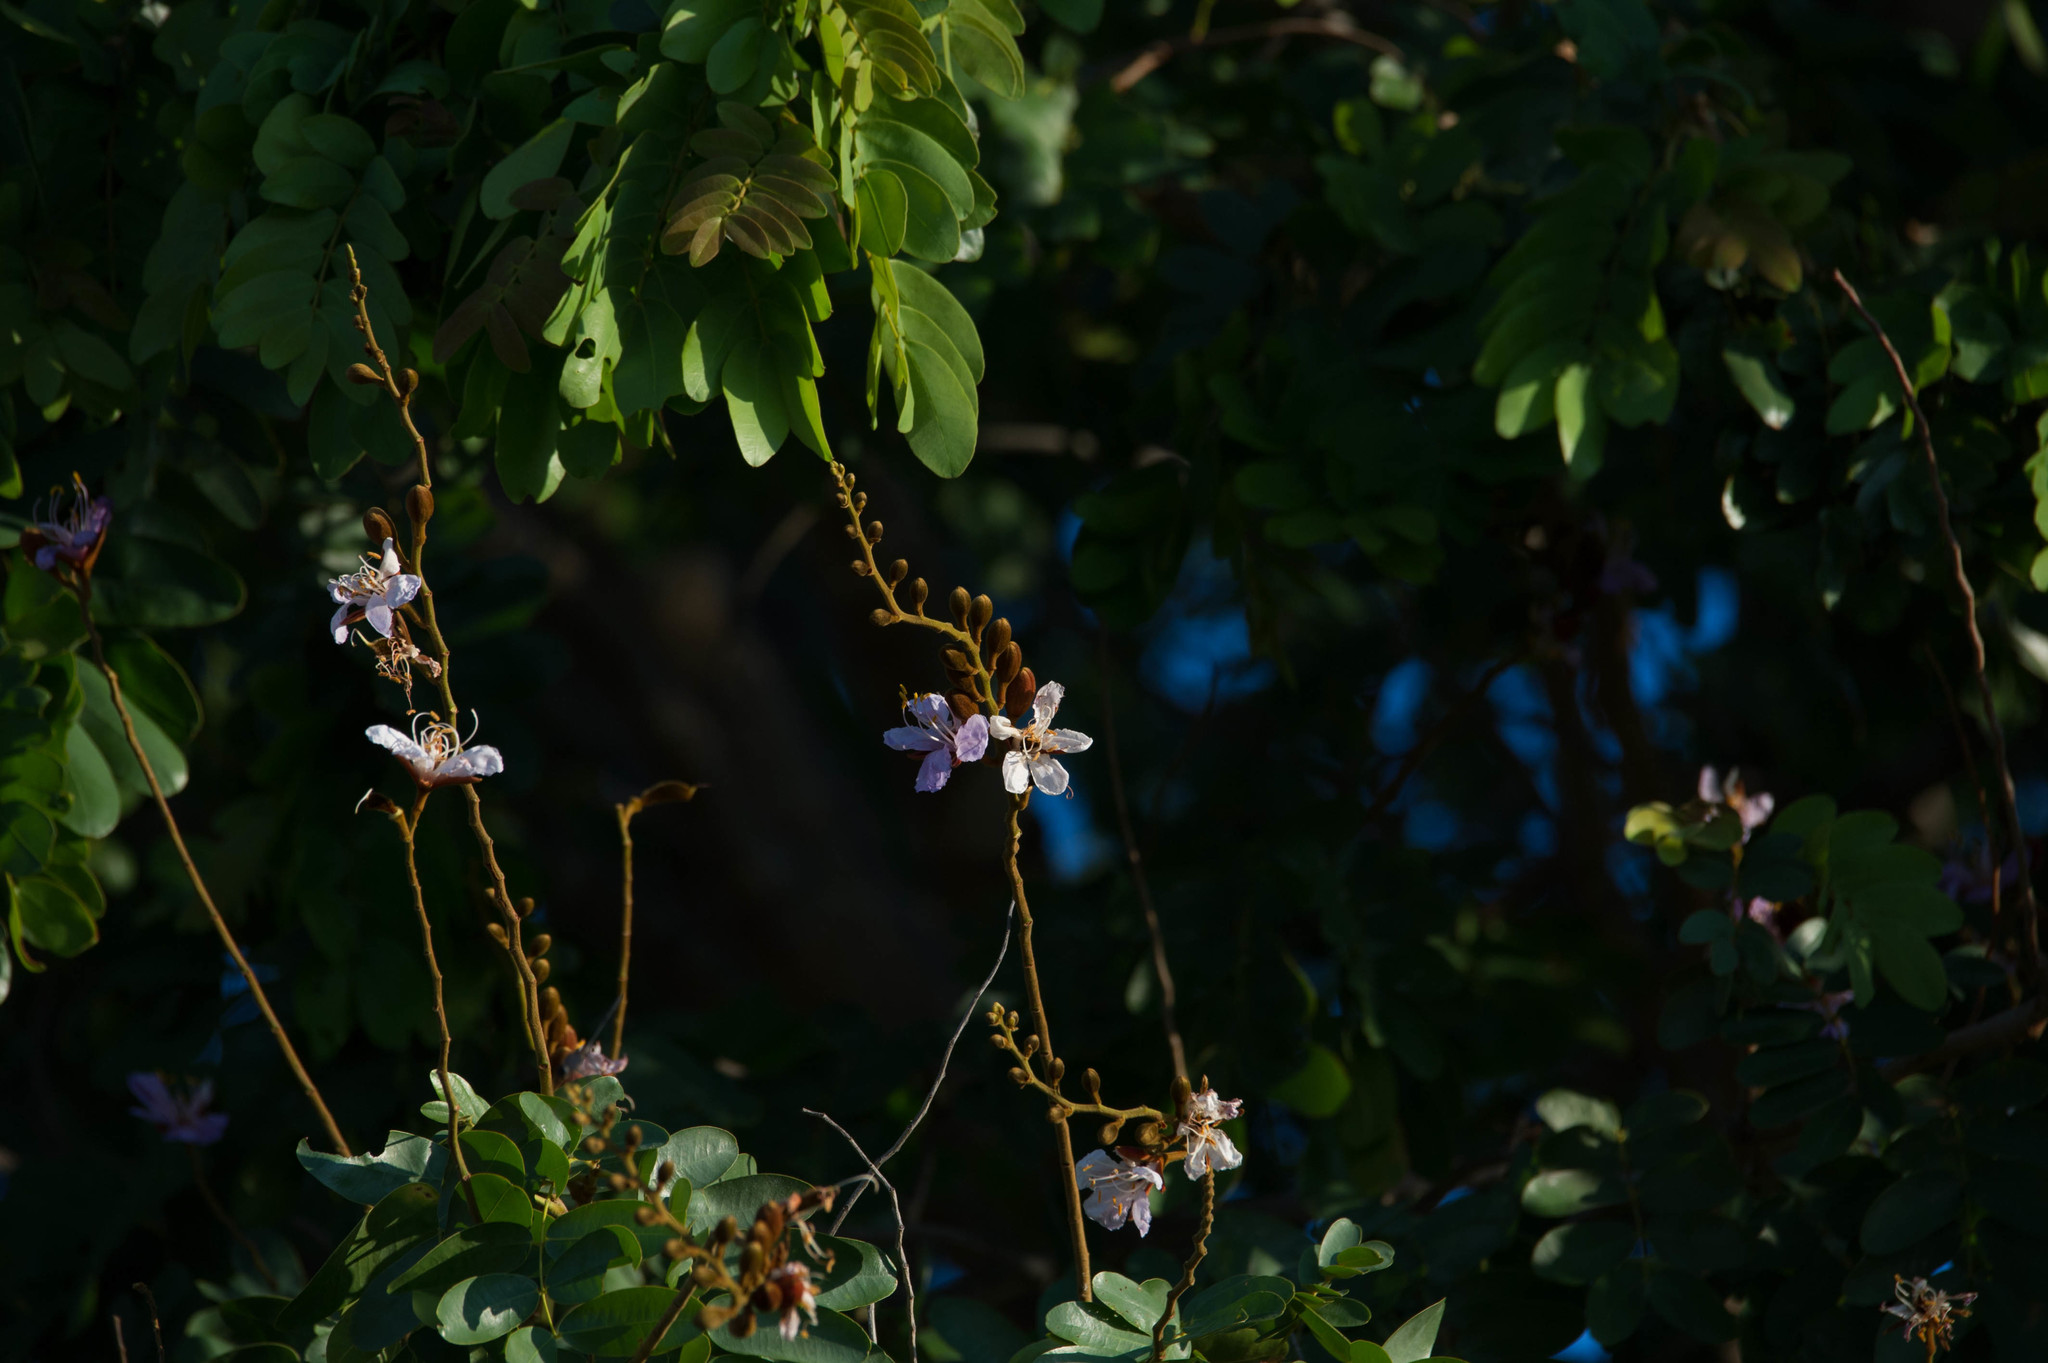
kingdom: Plantae
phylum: Tracheophyta
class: Magnoliopsida
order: Fabales
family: Fabaceae
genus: Baikiaea
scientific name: Baikiaea plurijuga
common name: Rhodesian-teak
